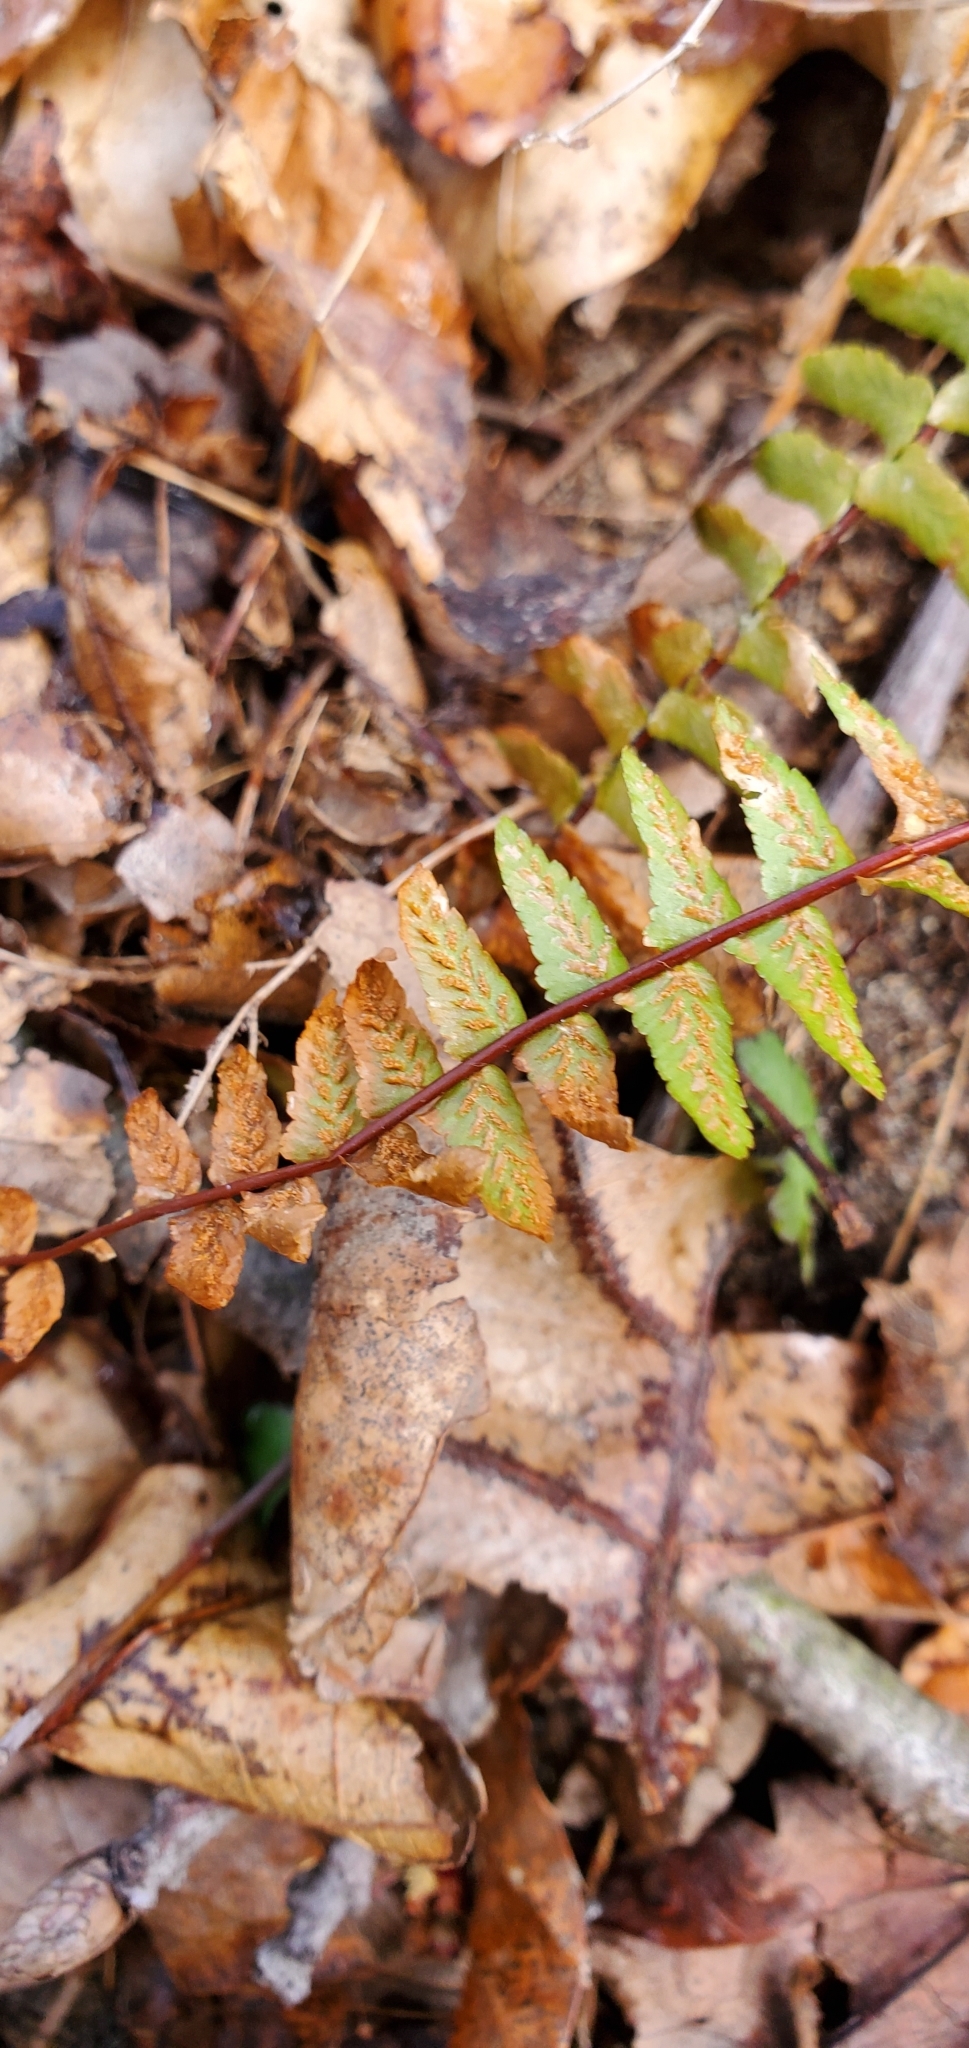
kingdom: Plantae
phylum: Tracheophyta
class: Polypodiopsida
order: Polypodiales
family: Aspleniaceae
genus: Asplenium
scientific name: Asplenium platyneuron
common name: Ebony spleenwort
